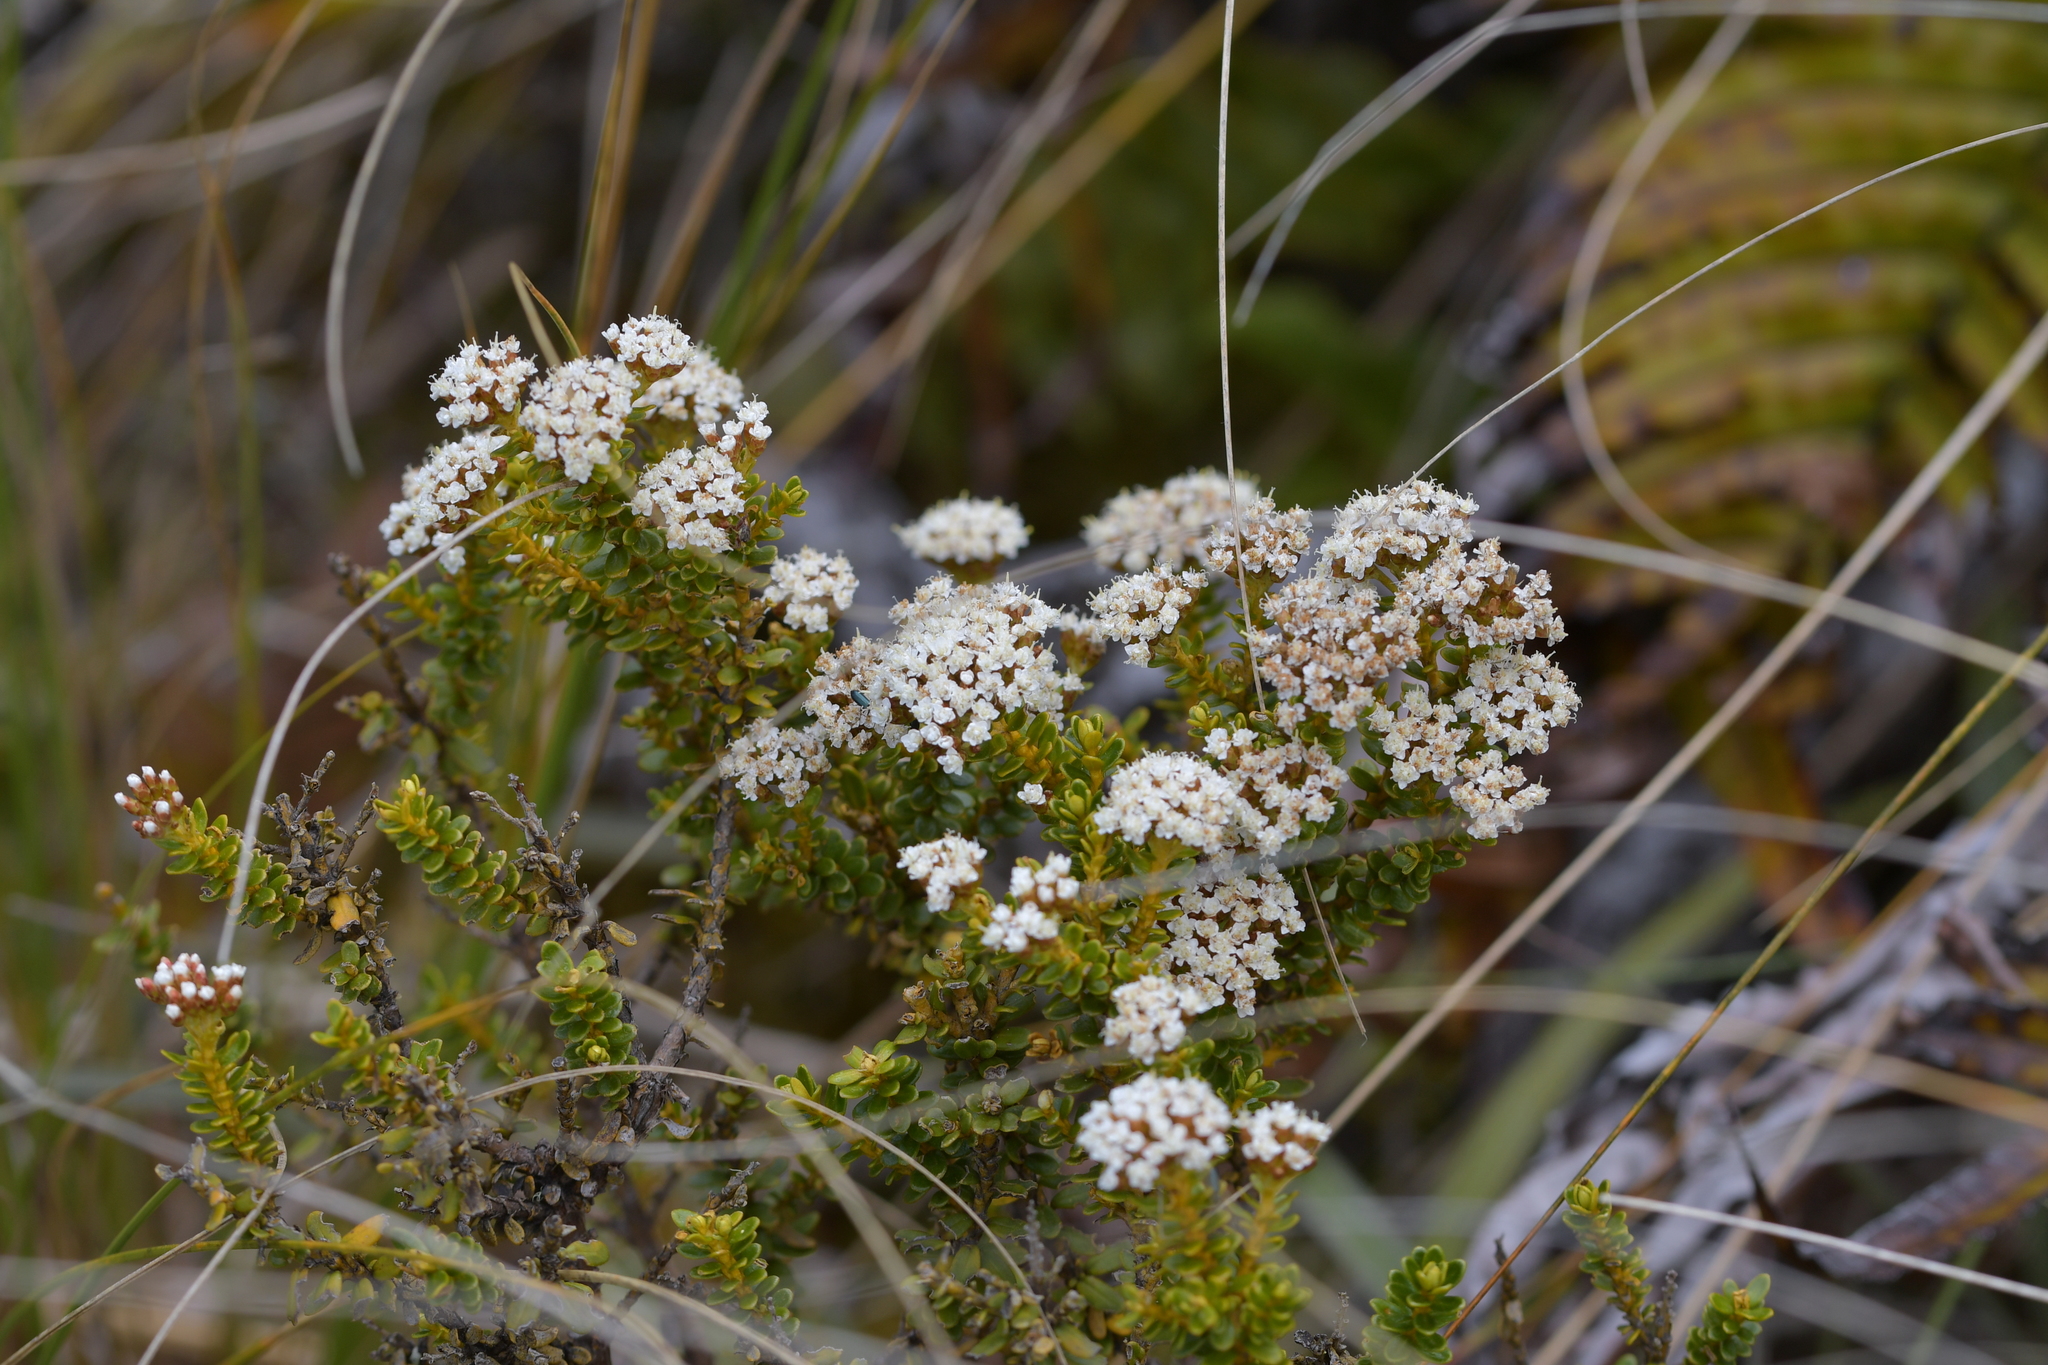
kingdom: Plantae
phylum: Tracheophyta
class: Magnoliopsida
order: Asterales
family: Asteraceae
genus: Ozothamnus
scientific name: Ozothamnus leptophyllus
